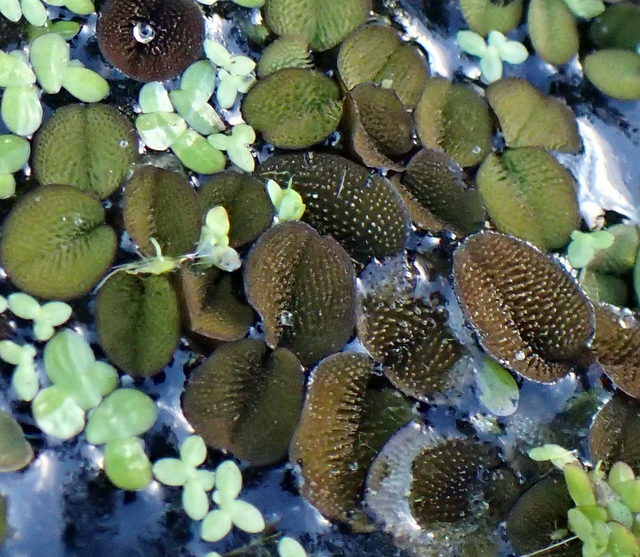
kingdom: Plantae
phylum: Tracheophyta
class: Polypodiopsida
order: Salviniales
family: Salviniaceae
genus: Salvinia
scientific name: Salvinia minima
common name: Water spangles
